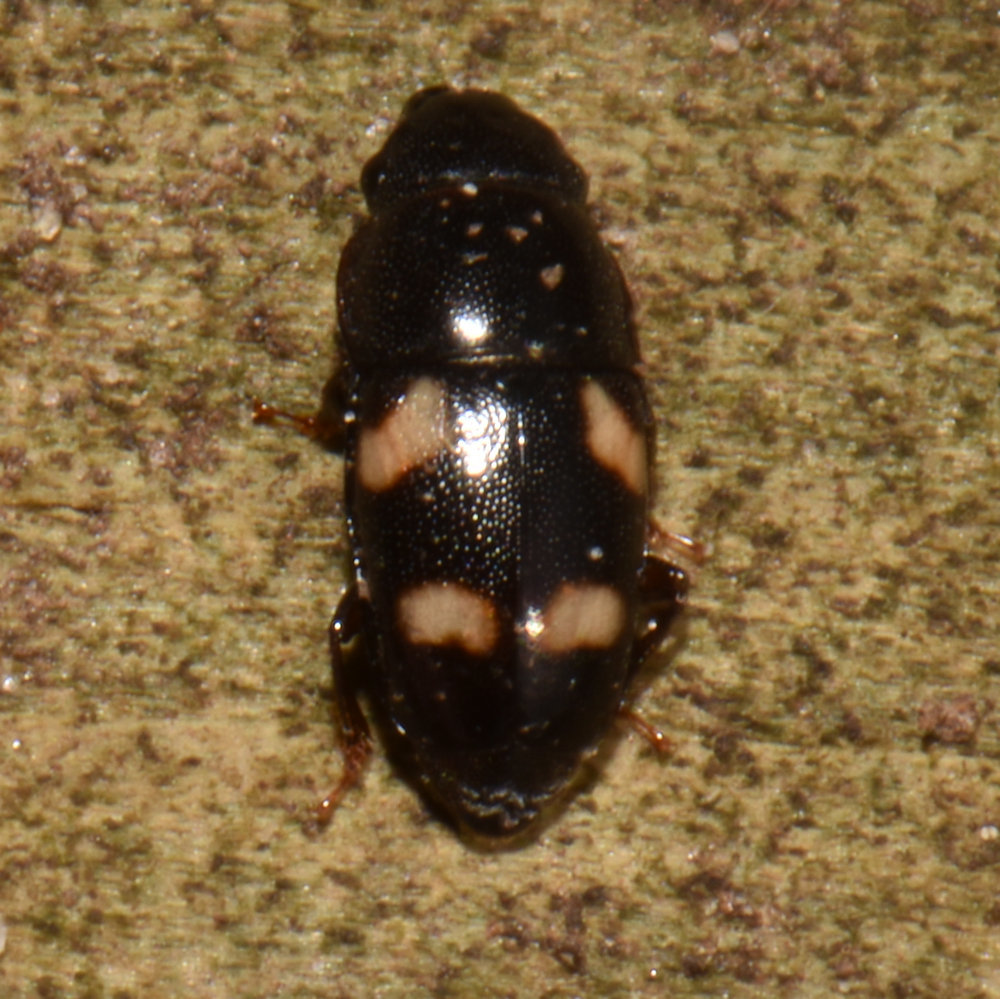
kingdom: Animalia
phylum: Arthropoda
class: Insecta
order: Coleoptera
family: Nitidulidae
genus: Glischrochilus
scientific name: Glischrochilus quadrisignatus
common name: Picnic beetle
